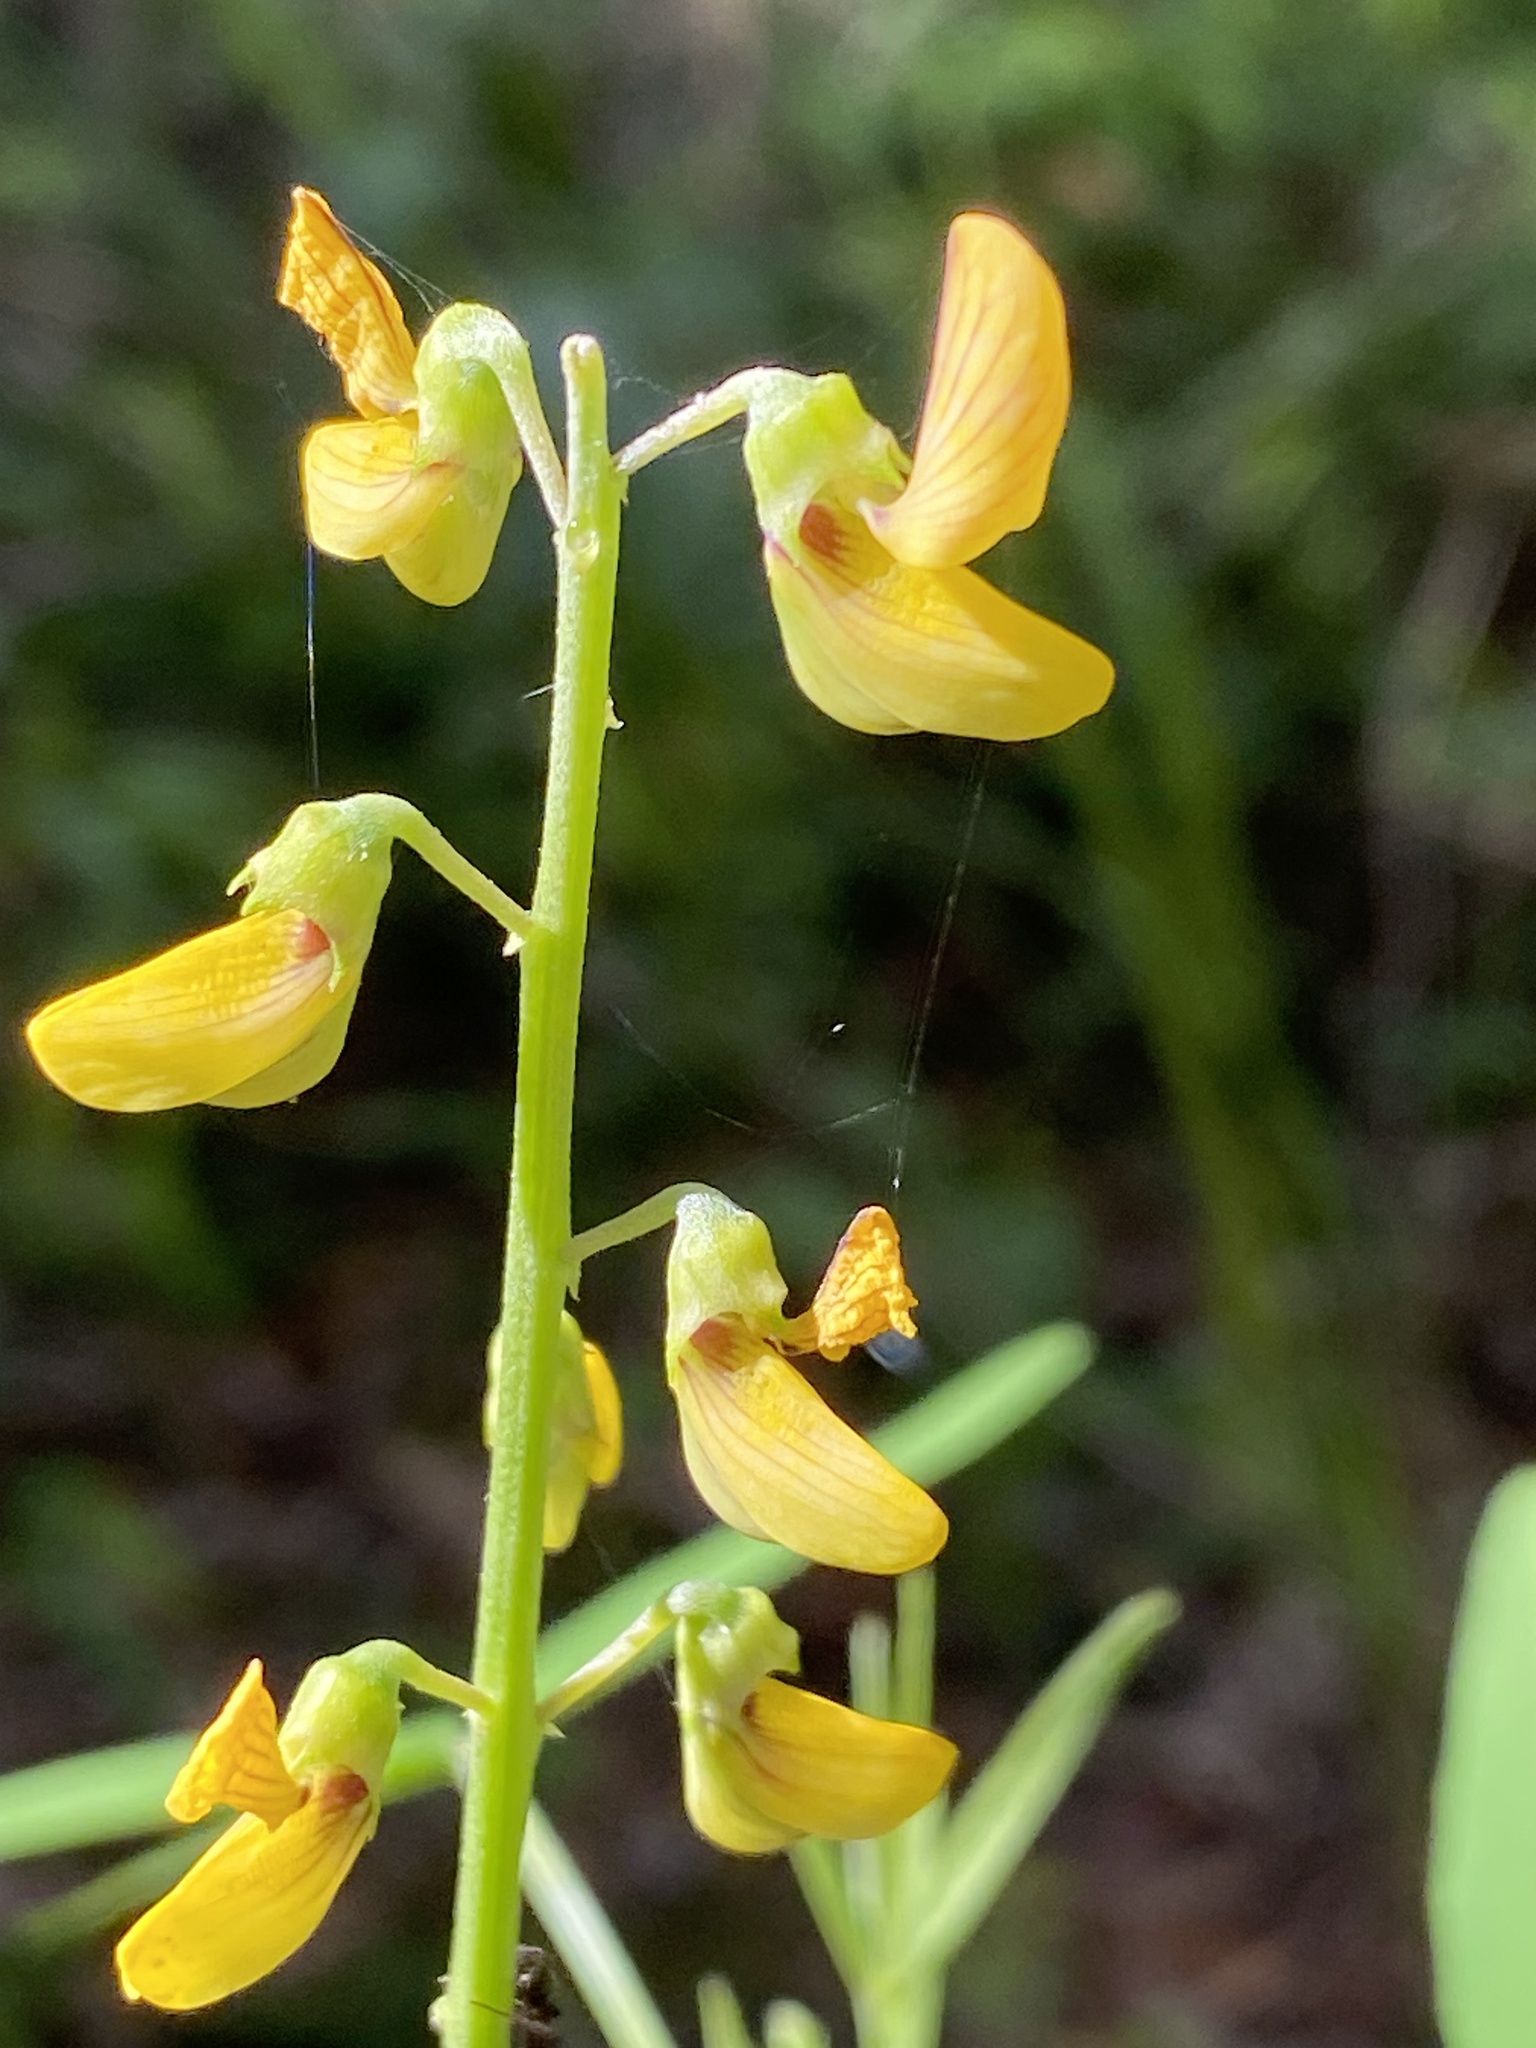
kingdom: Plantae
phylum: Tracheophyta
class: Magnoliopsida
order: Fabales
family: Fabaceae
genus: Crotalaria
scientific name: Crotalaria lanceolata
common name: Lanceleaf rattlebox
